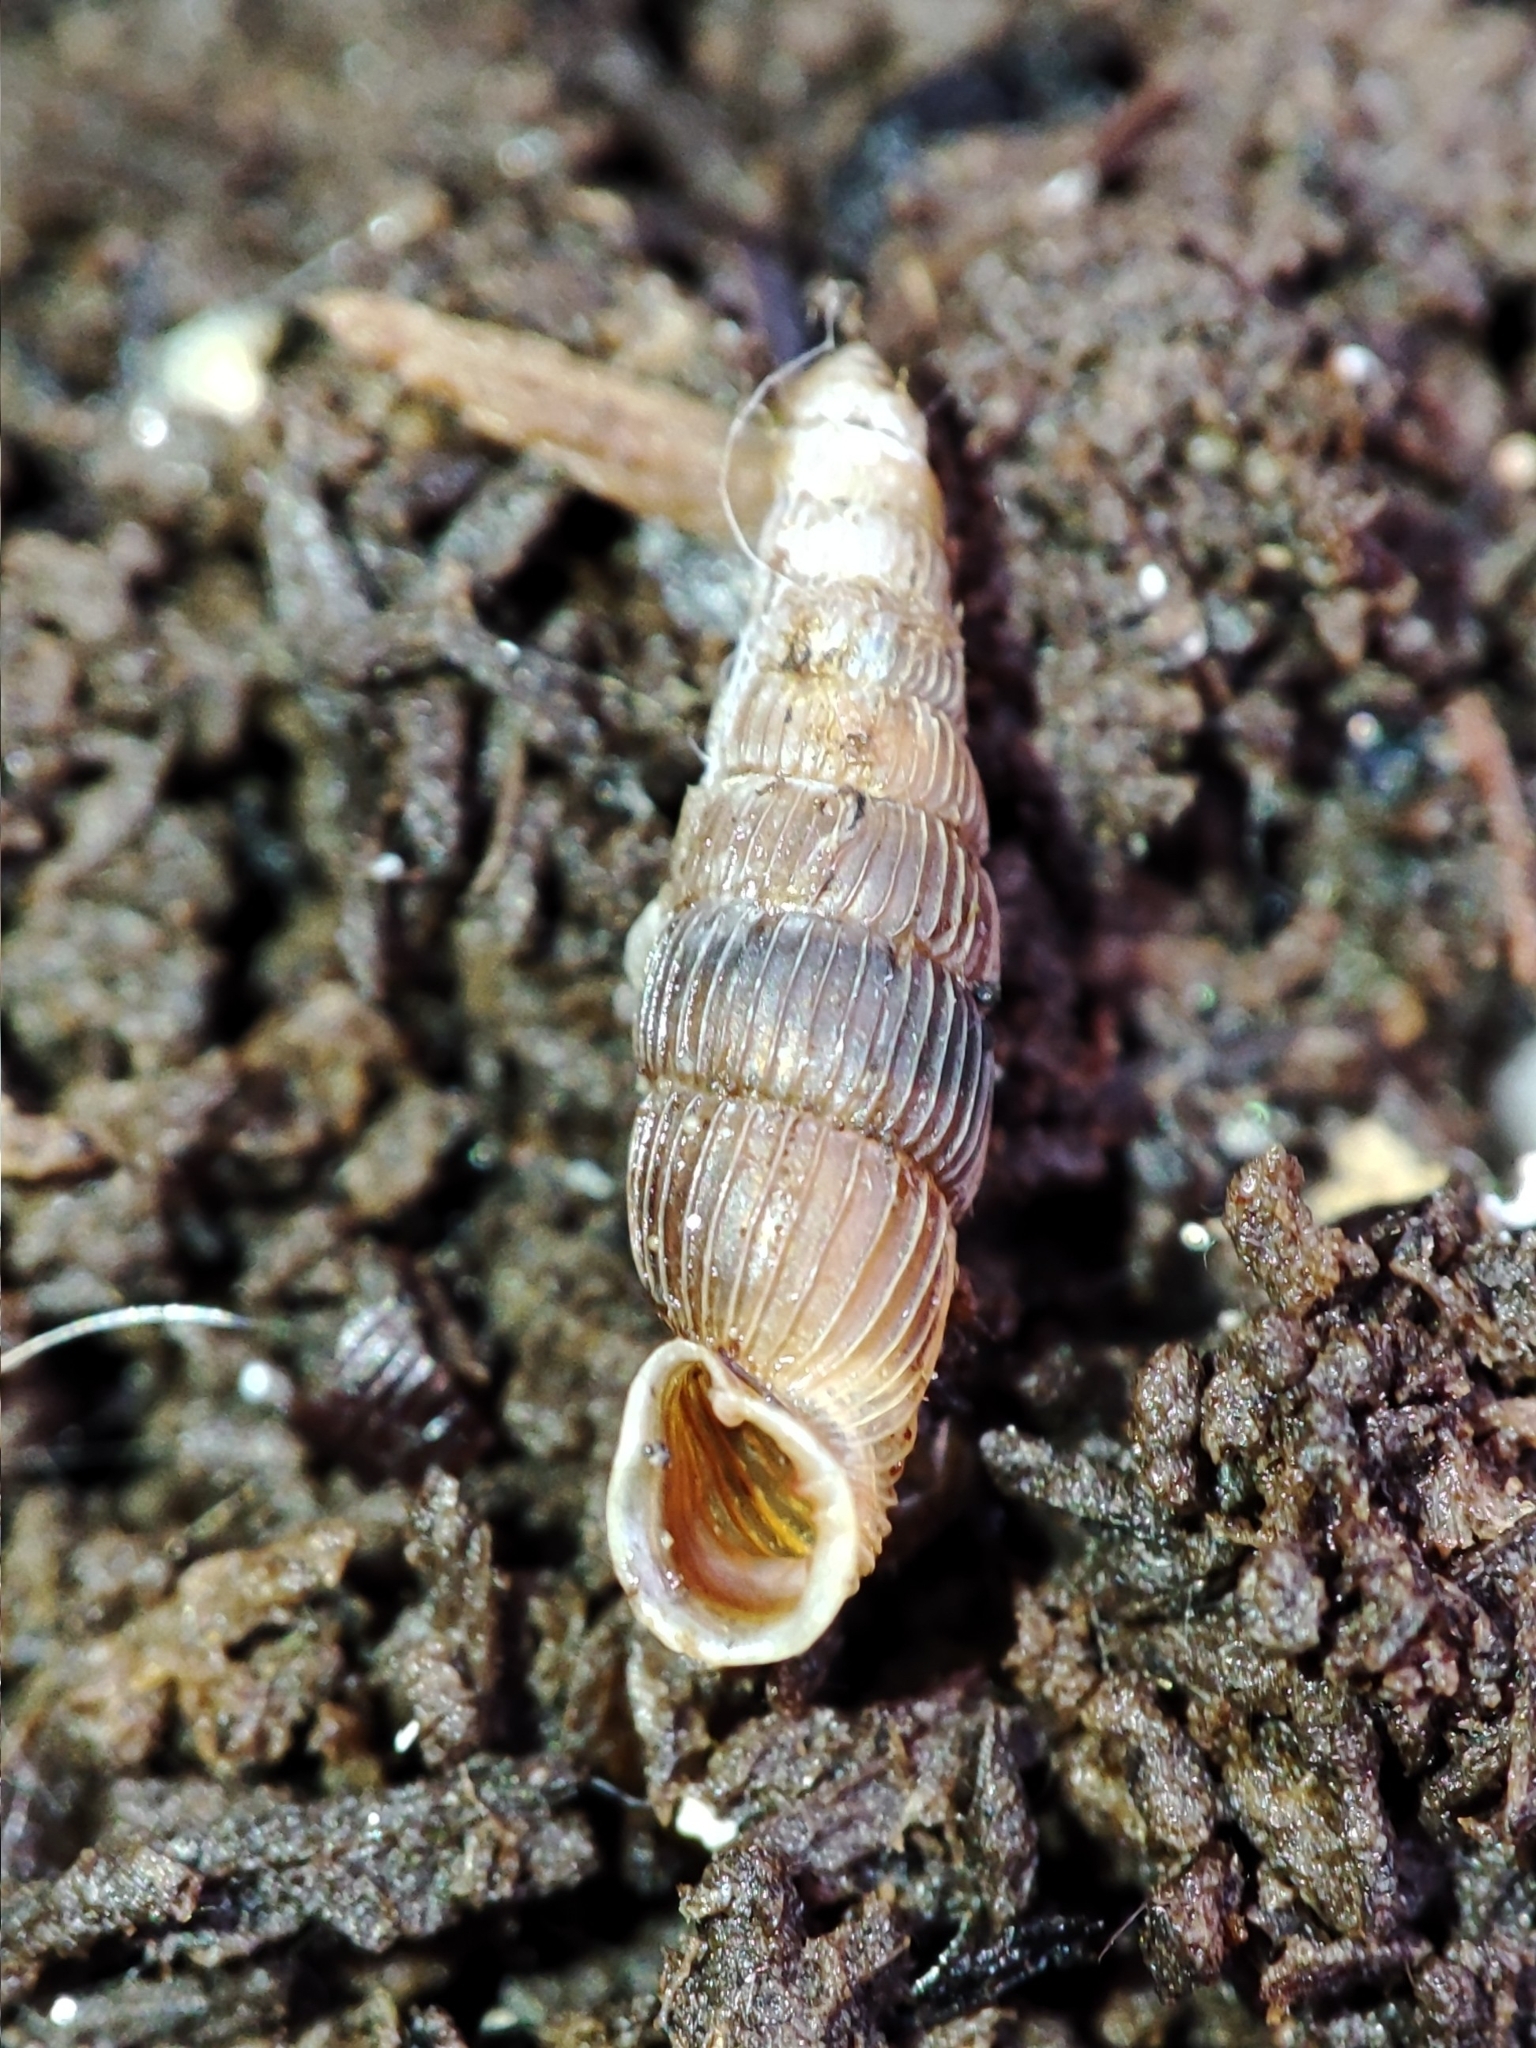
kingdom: Animalia
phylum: Mollusca
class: Gastropoda
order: Stylommatophora
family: Clausiliidae
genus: Ruthenica
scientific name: Ruthenica filograna
